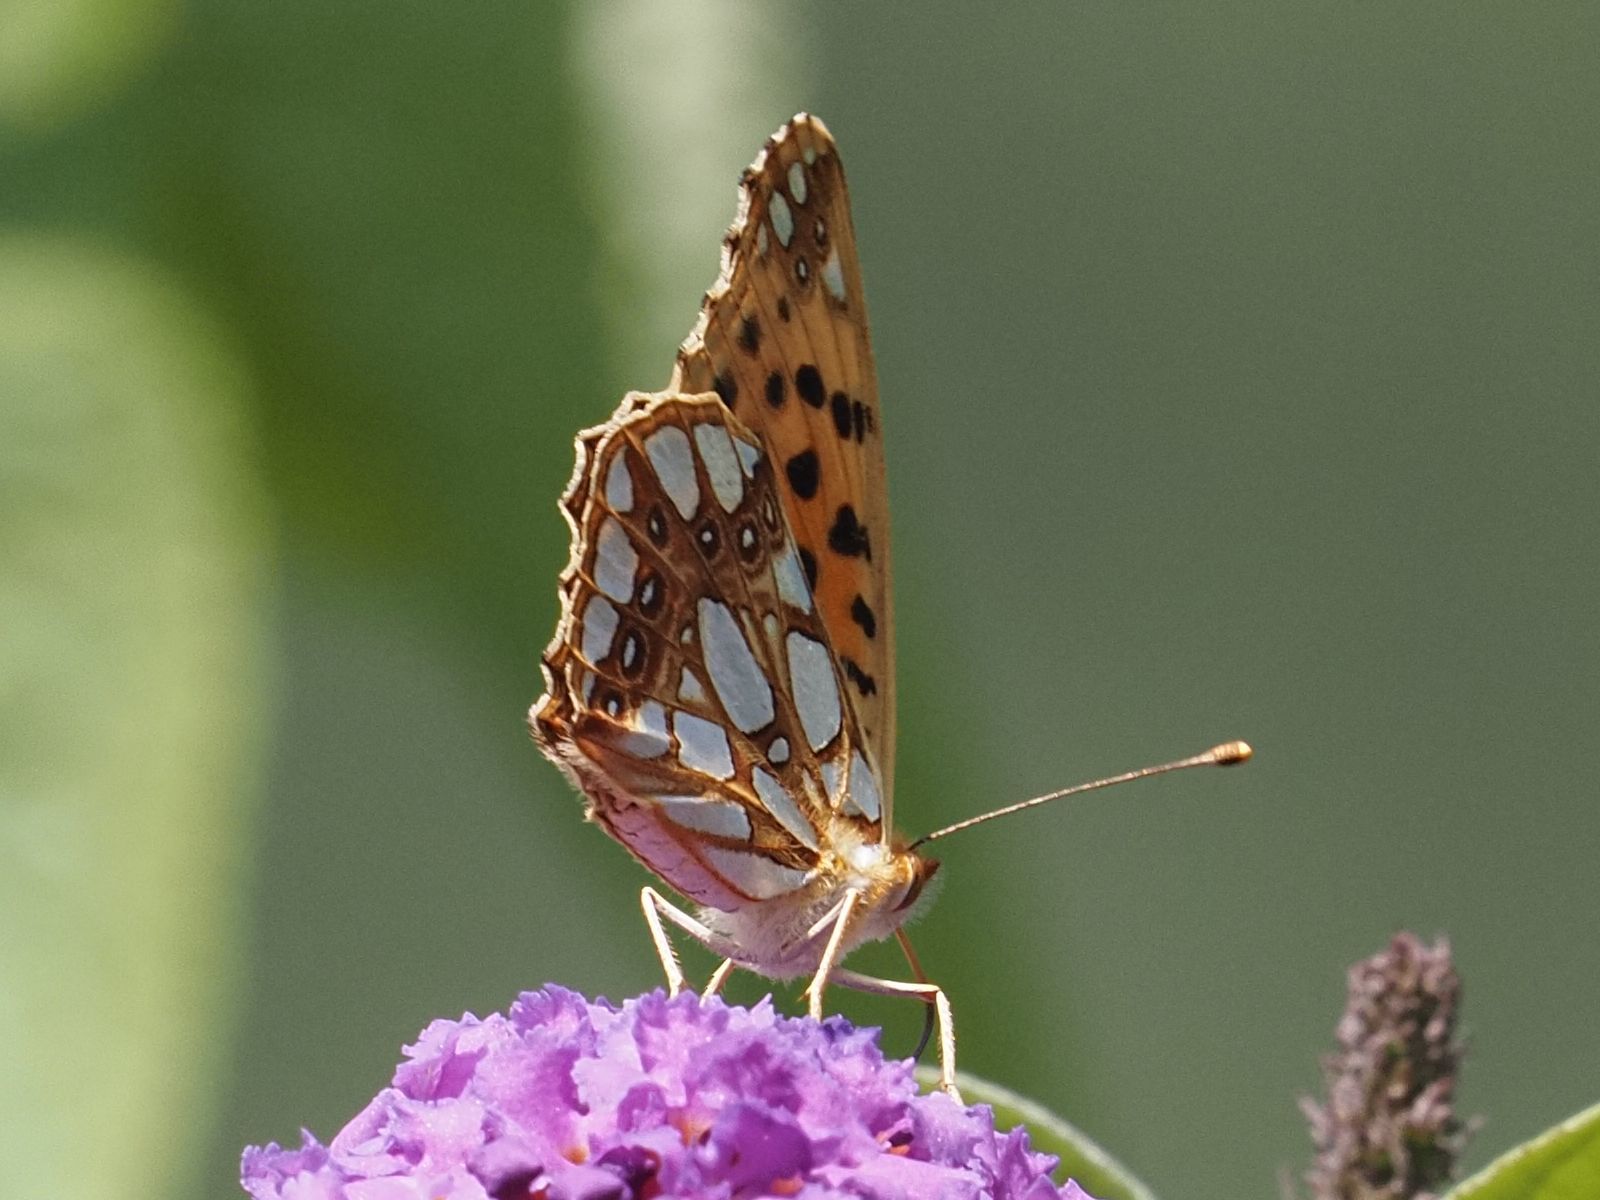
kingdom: Animalia
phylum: Arthropoda
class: Insecta
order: Lepidoptera
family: Nymphalidae
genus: Issoria
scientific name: Issoria lathonia
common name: Queen of spain fritillary
